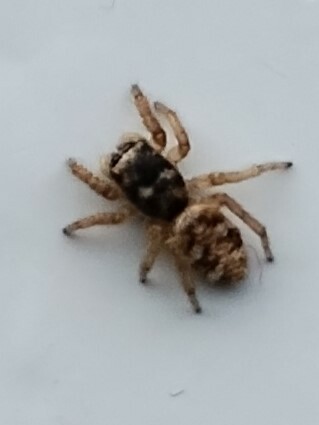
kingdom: Animalia
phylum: Arthropoda
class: Arachnida
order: Araneae
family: Salticidae
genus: Salticus
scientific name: Salticus scenicus
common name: Zebra jumper
